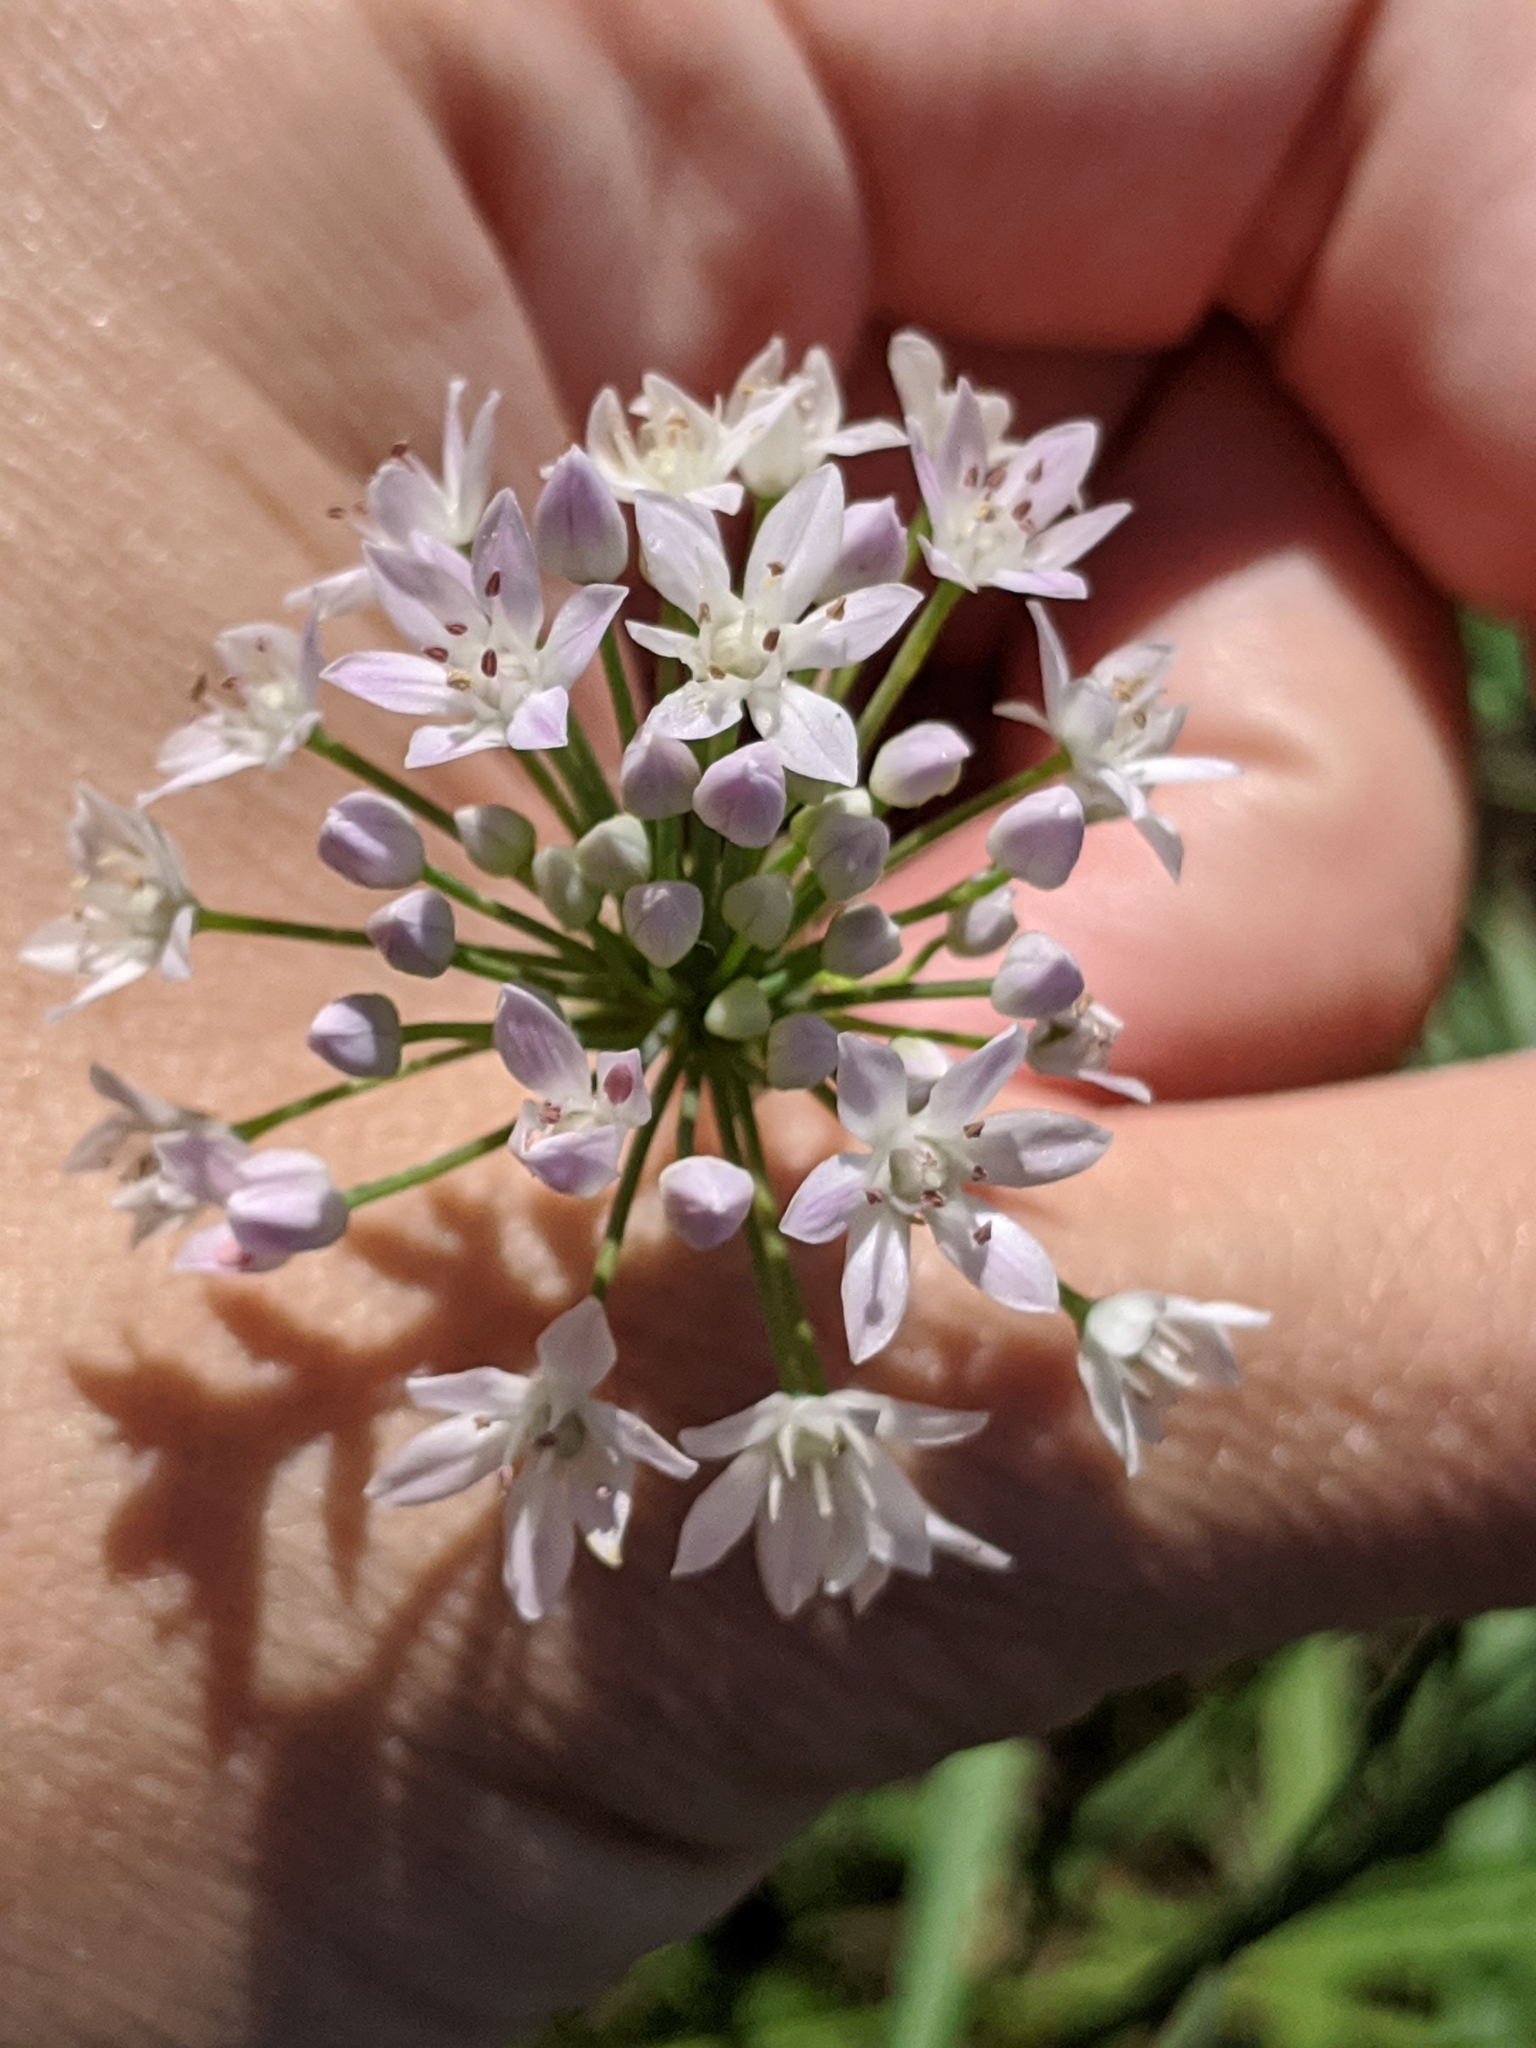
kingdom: Plantae
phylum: Tracheophyta
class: Liliopsida
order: Asparagales
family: Amaryllidaceae
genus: Allium
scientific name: Allium drummondii
